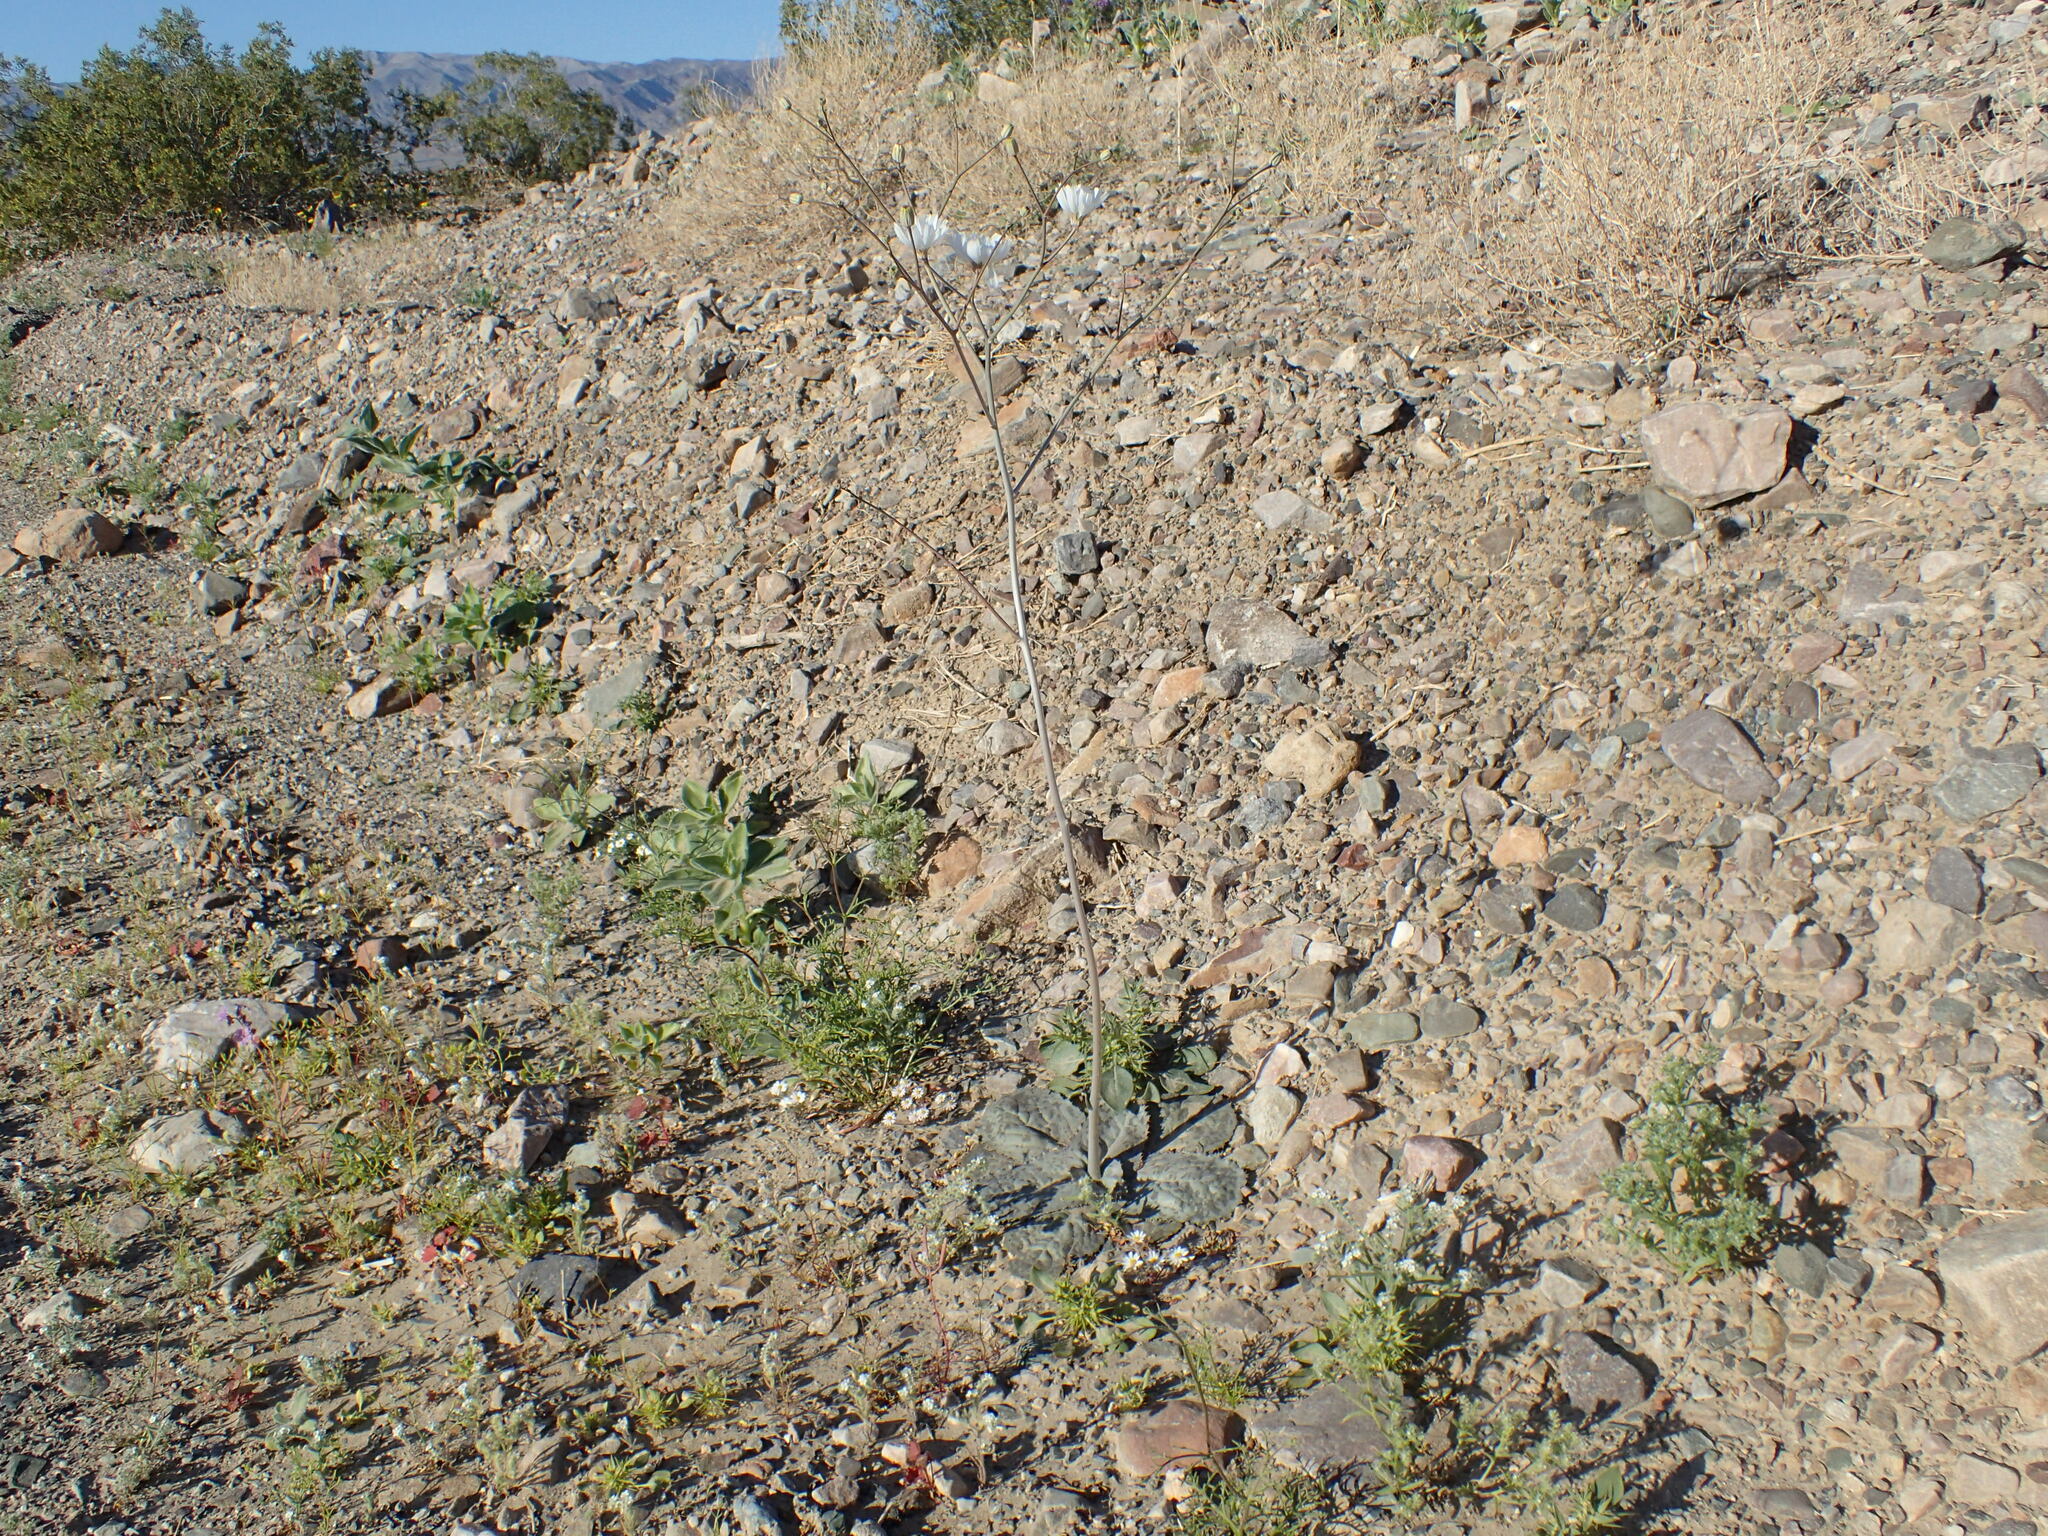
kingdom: Plantae
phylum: Tracheophyta
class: Magnoliopsida
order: Asterales
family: Asteraceae
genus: Atrichoseris
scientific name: Atrichoseris platyphylla
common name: Tobaccoweed
